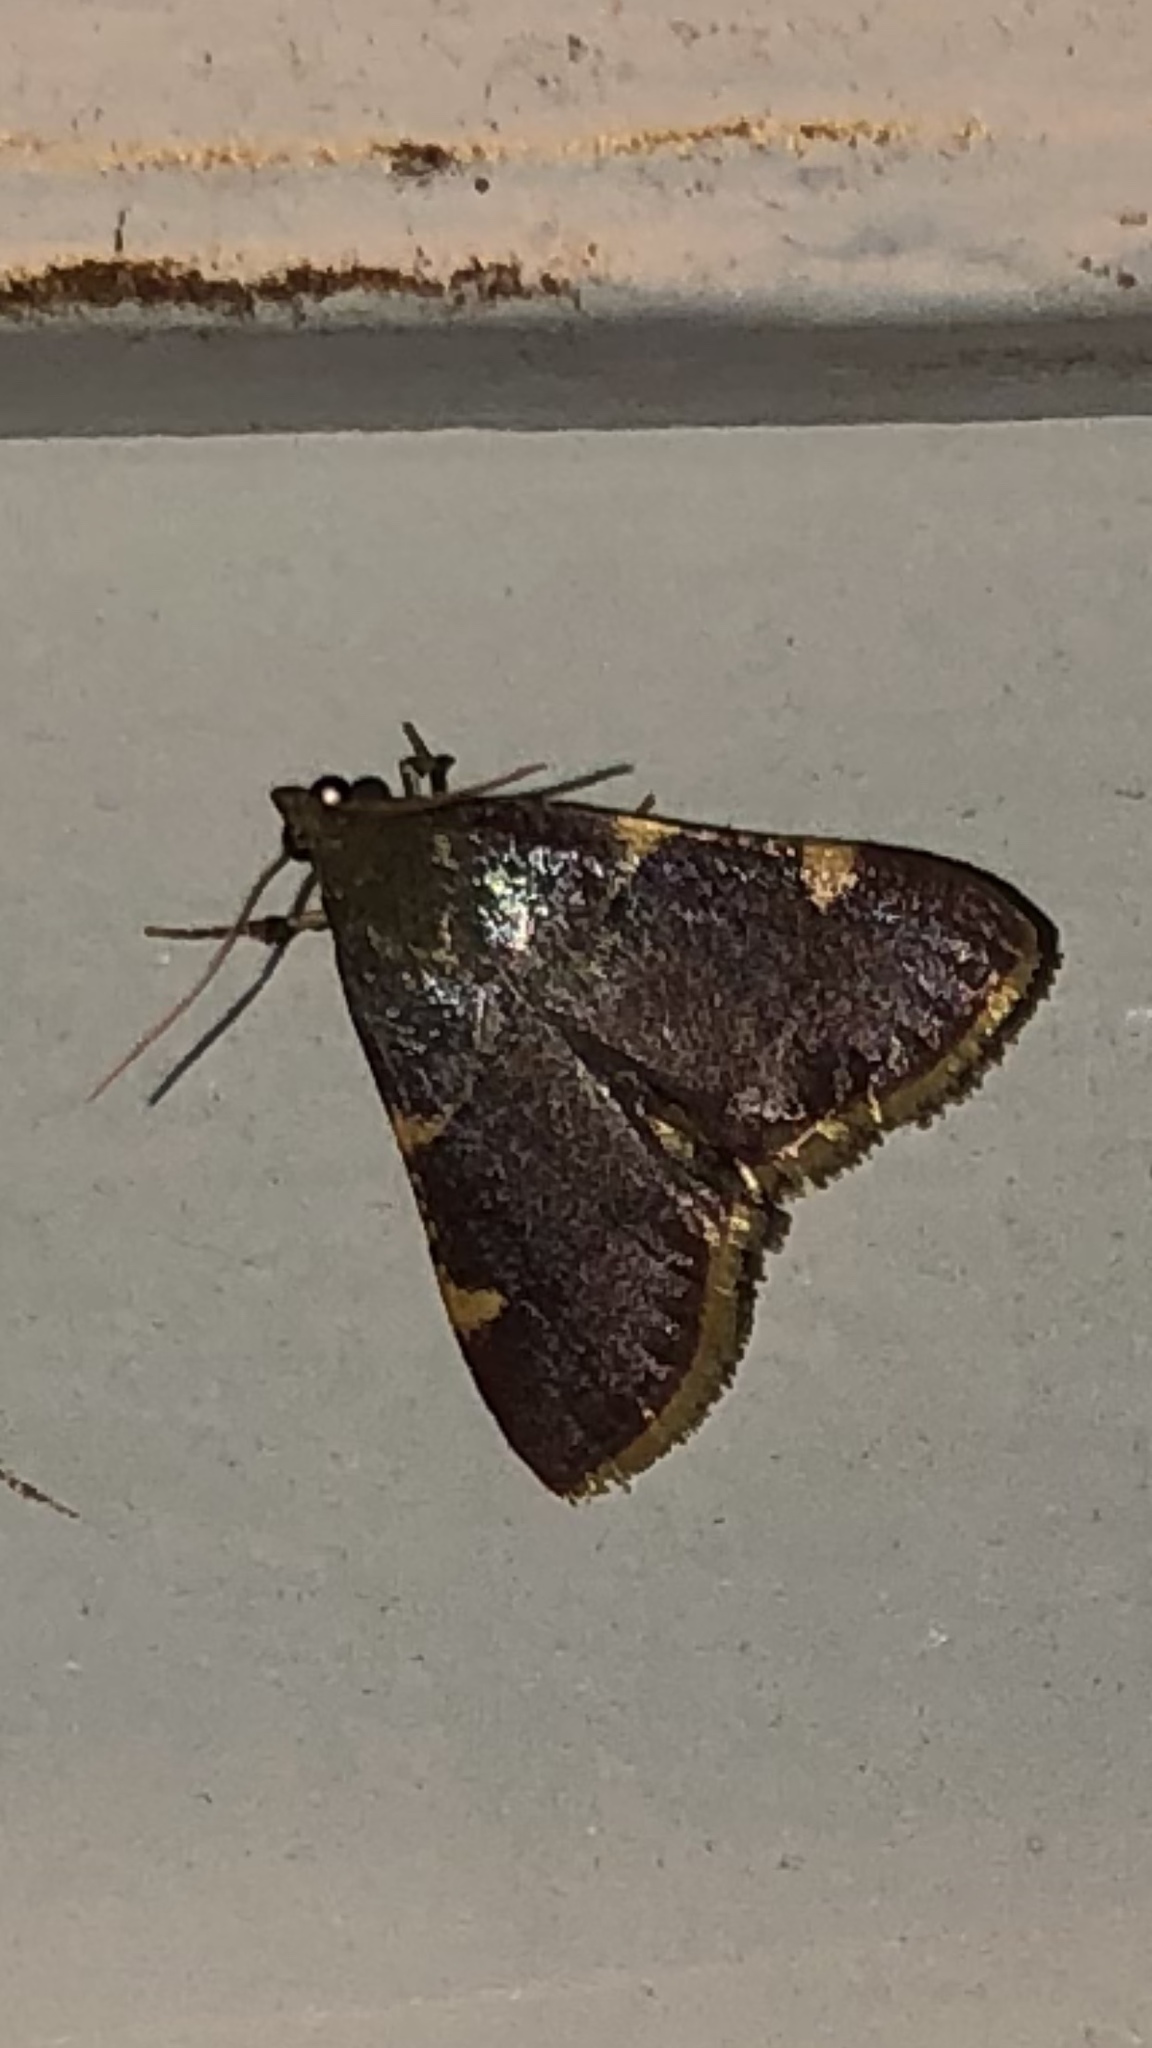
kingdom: Animalia
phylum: Arthropoda
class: Insecta
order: Lepidoptera
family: Pyralidae
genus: Hypsopygia
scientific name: Hypsopygia olinalis
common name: Yellow-fringed dolichomia moth
